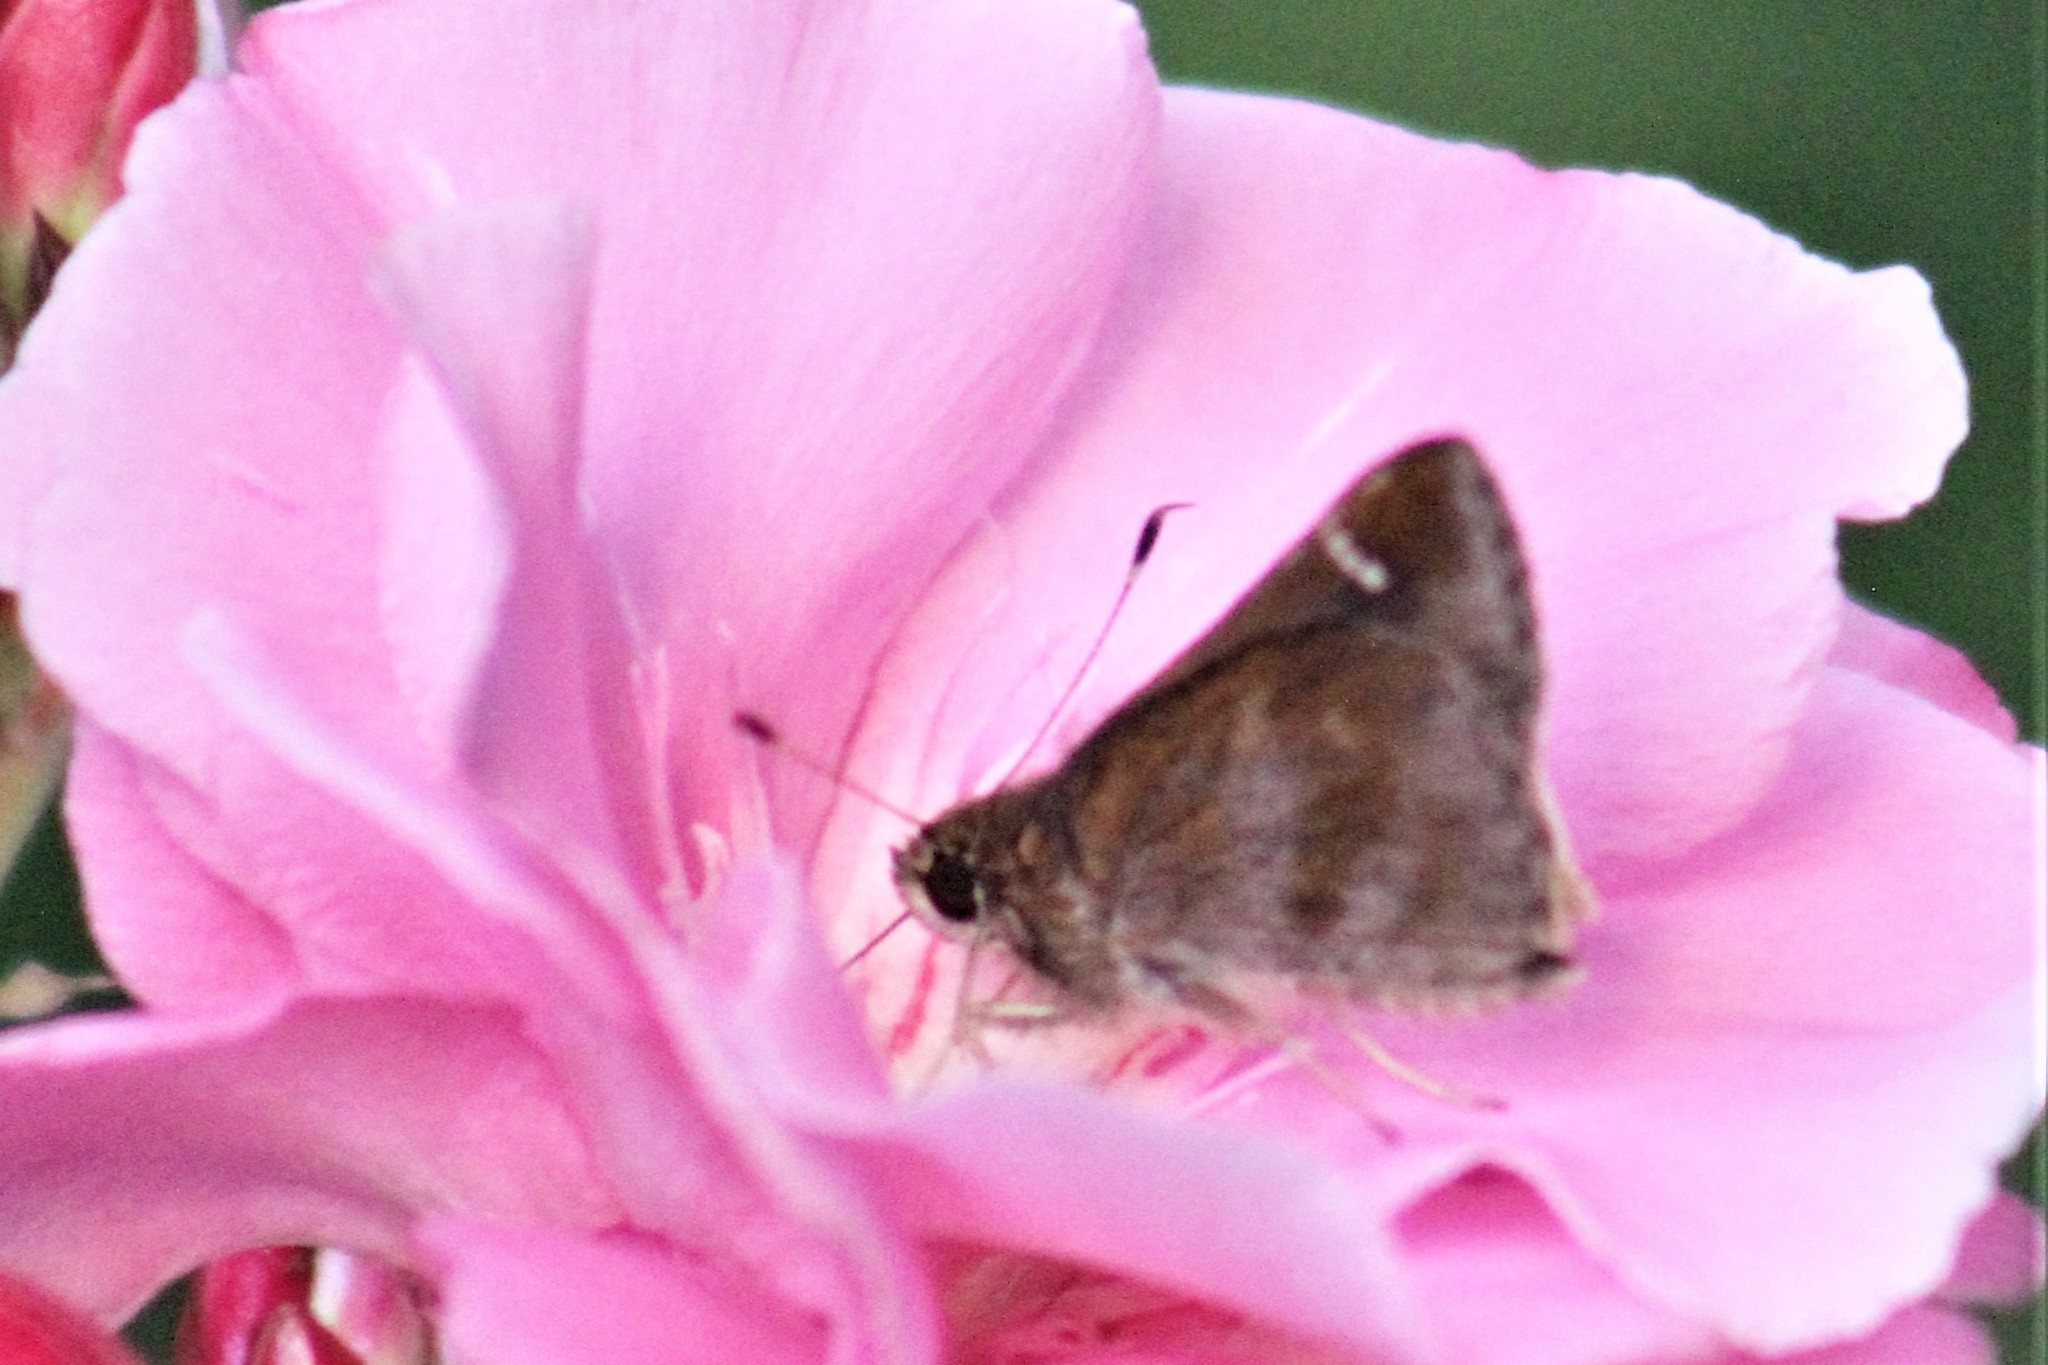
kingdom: Animalia
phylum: Arthropoda
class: Insecta
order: Lepidoptera
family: Hesperiidae
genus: Lerema
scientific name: Lerema accius
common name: Clouded skipper
